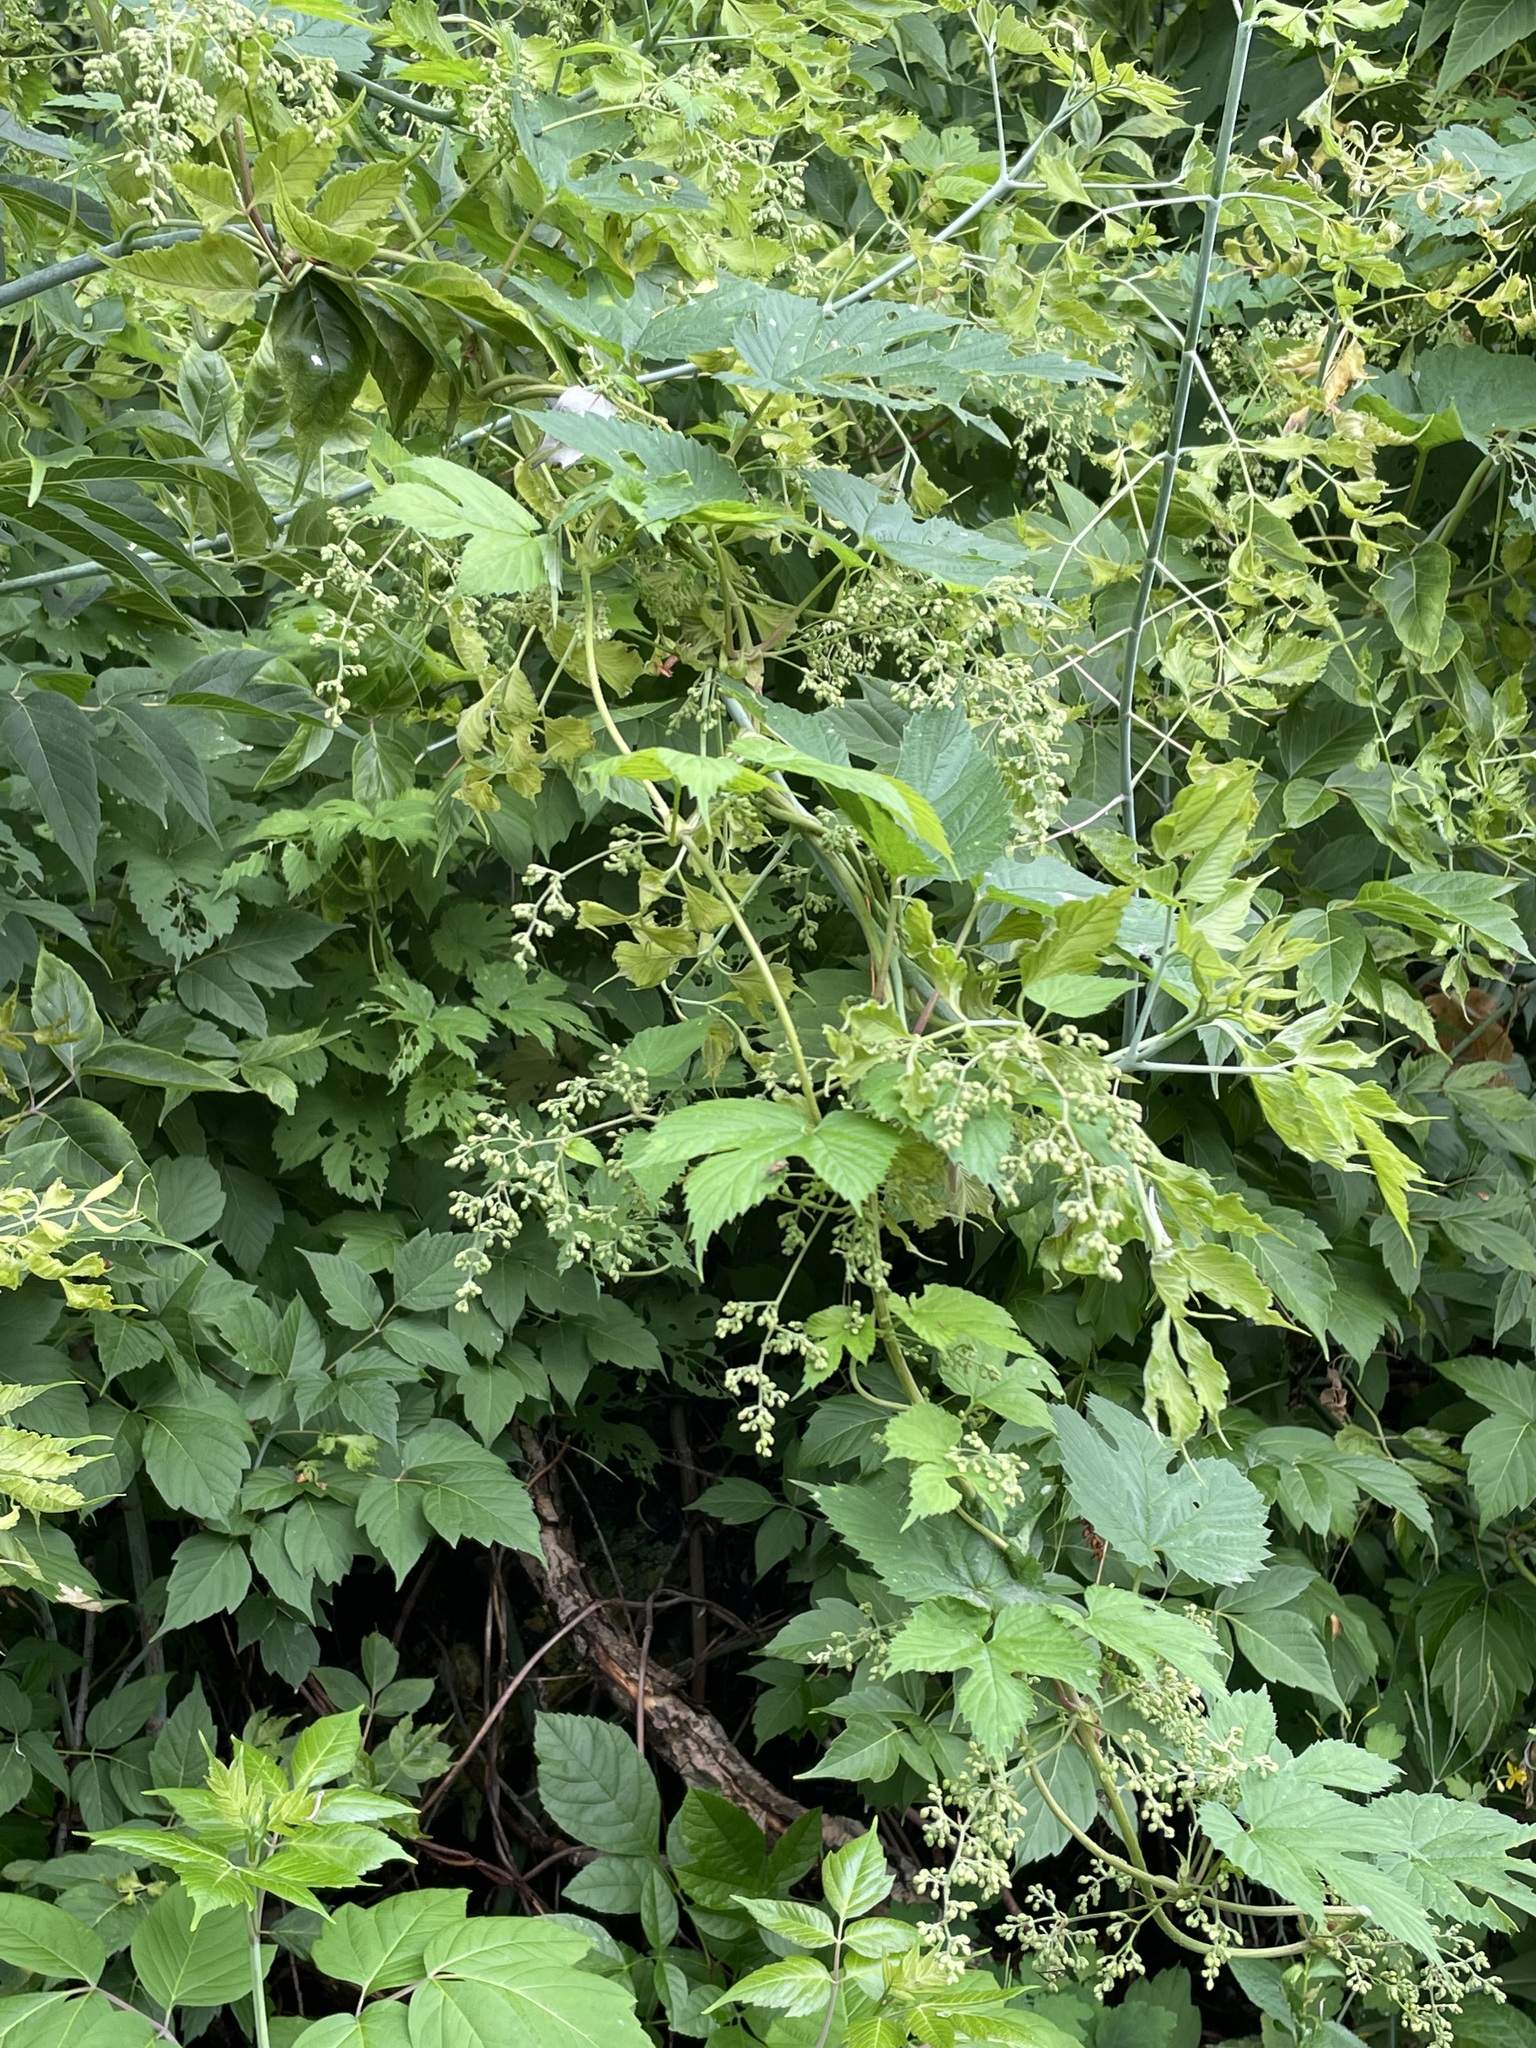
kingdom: Plantae
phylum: Tracheophyta
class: Magnoliopsida
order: Rosales
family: Cannabaceae
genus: Humulus
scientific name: Humulus lupulus
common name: Hop
